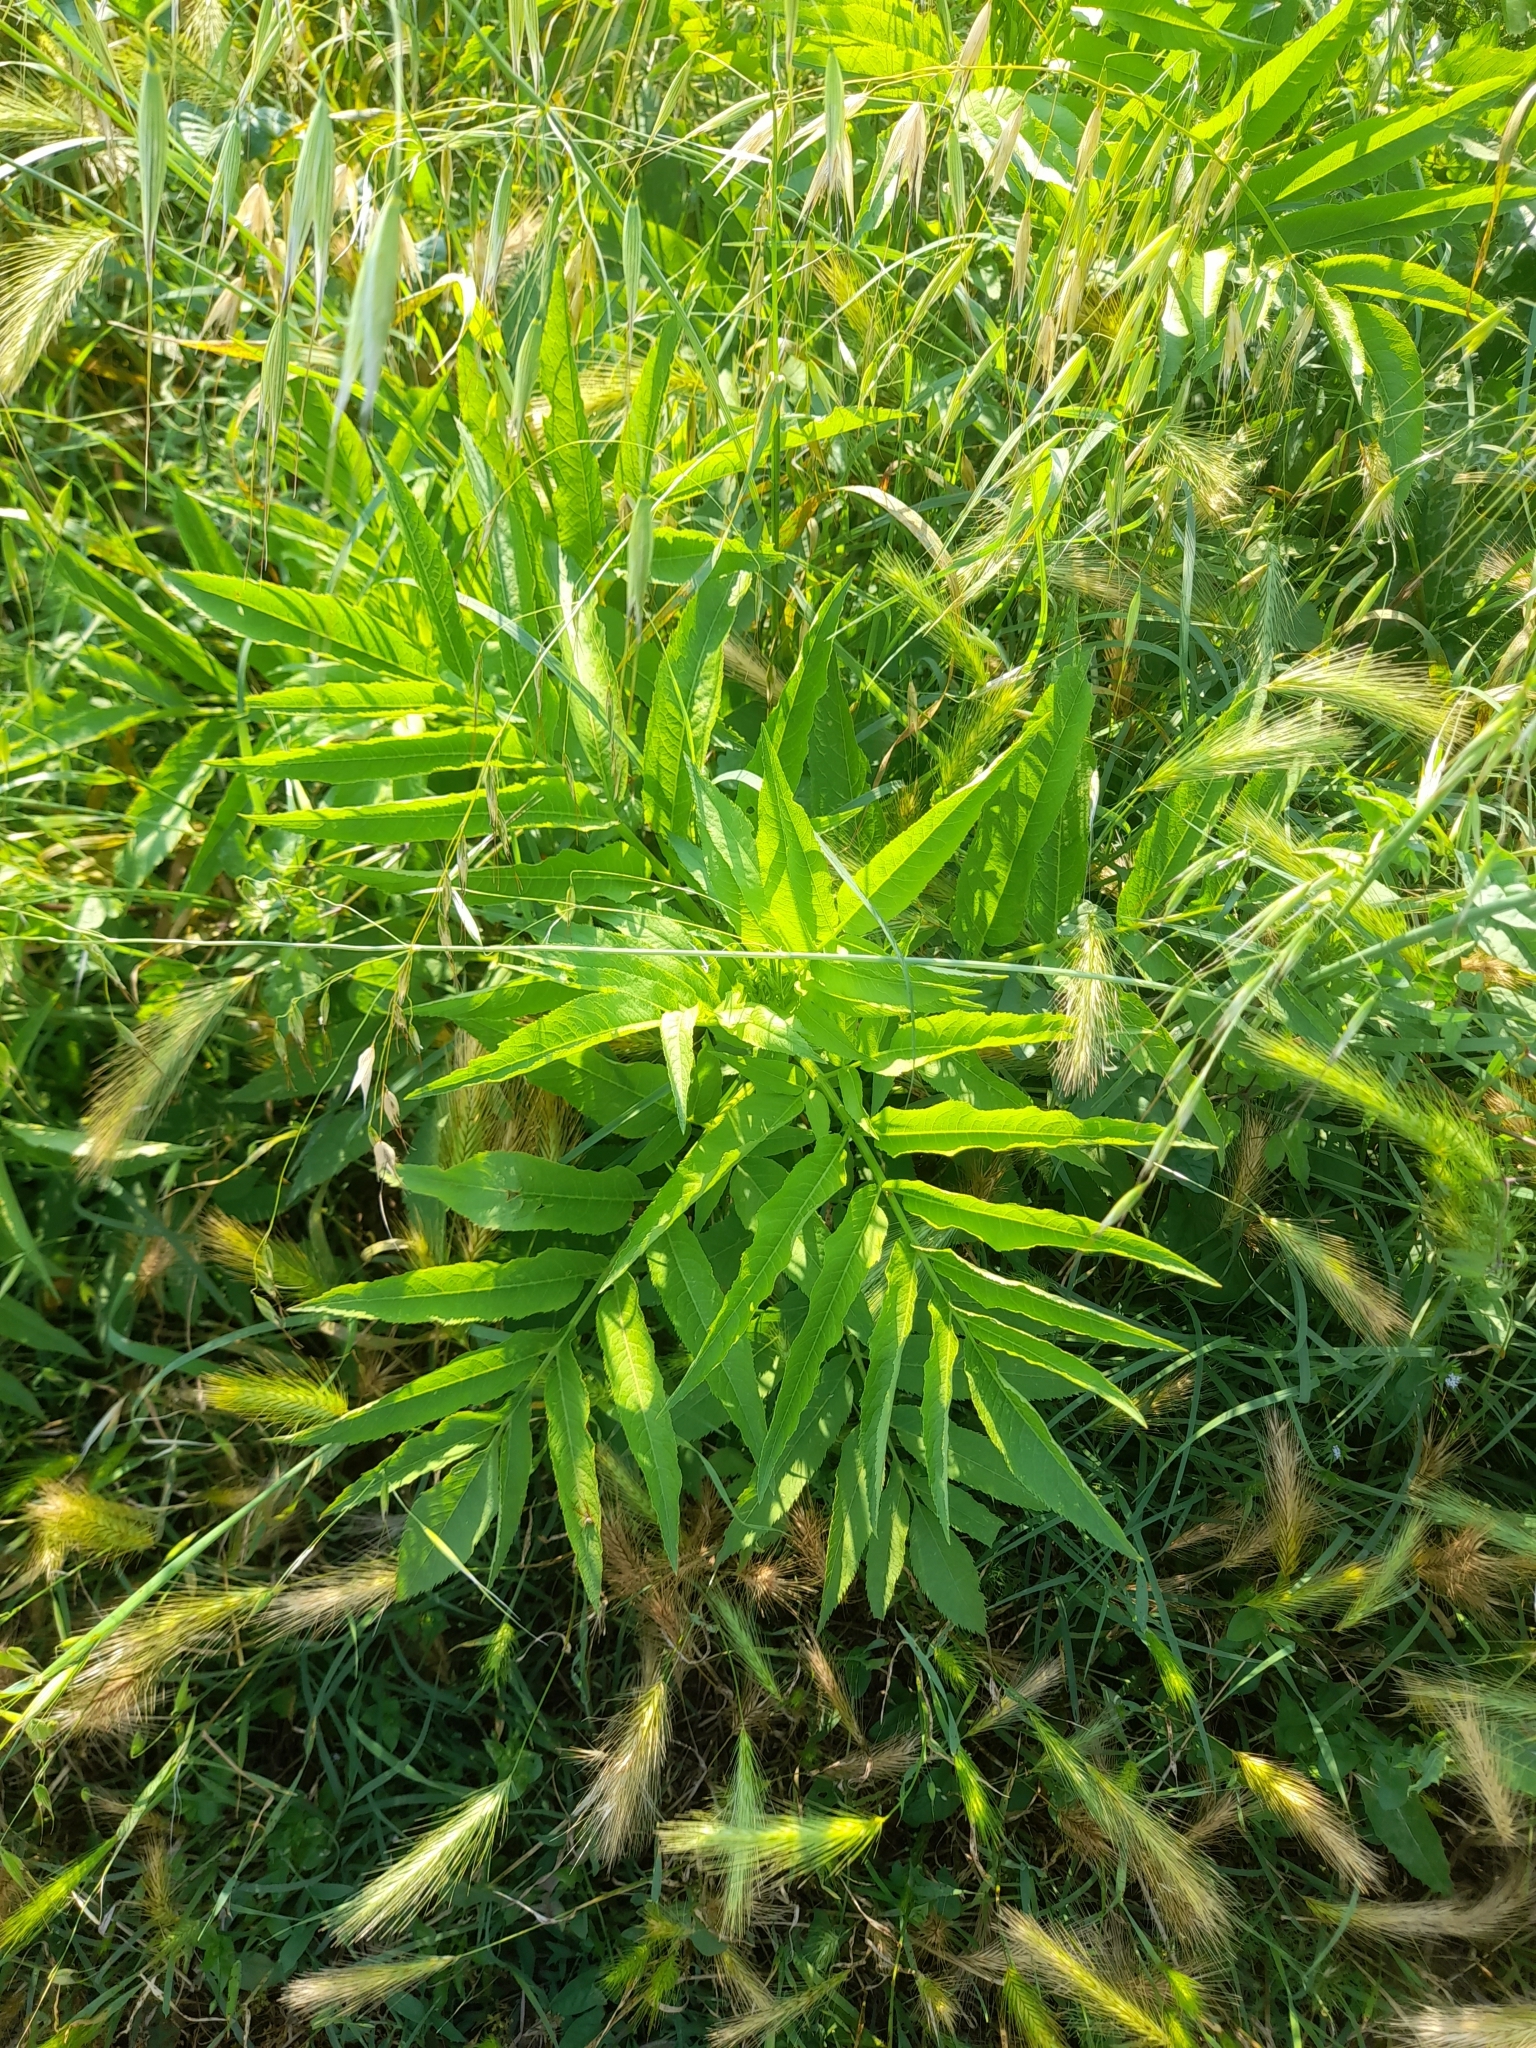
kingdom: Plantae
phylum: Tracheophyta
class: Magnoliopsida
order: Dipsacales
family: Viburnaceae
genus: Sambucus
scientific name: Sambucus ebulus
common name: Dwarf elder
